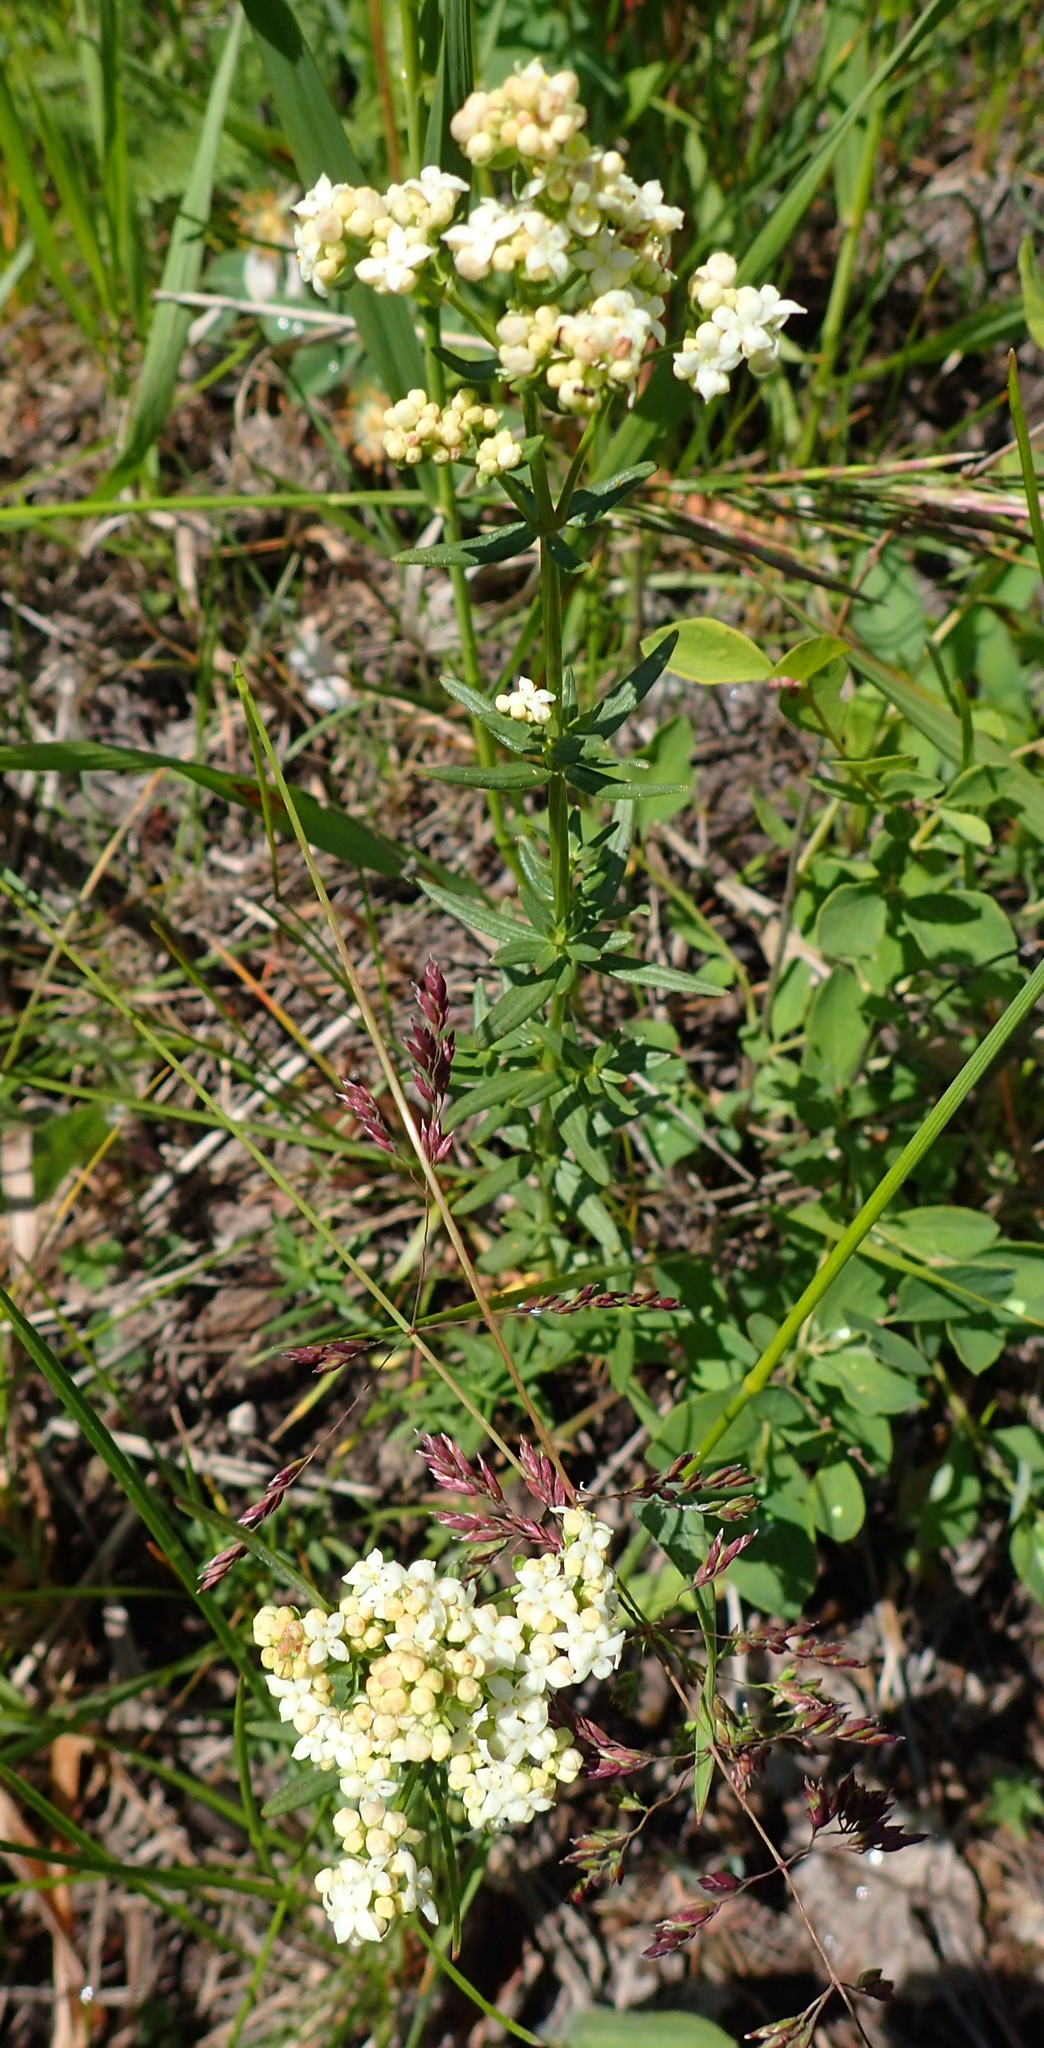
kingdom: Plantae
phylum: Tracheophyta
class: Magnoliopsida
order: Gentianales
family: Rubiaceae
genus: Galium
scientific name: Galium boreale
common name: Northern bedstraw
